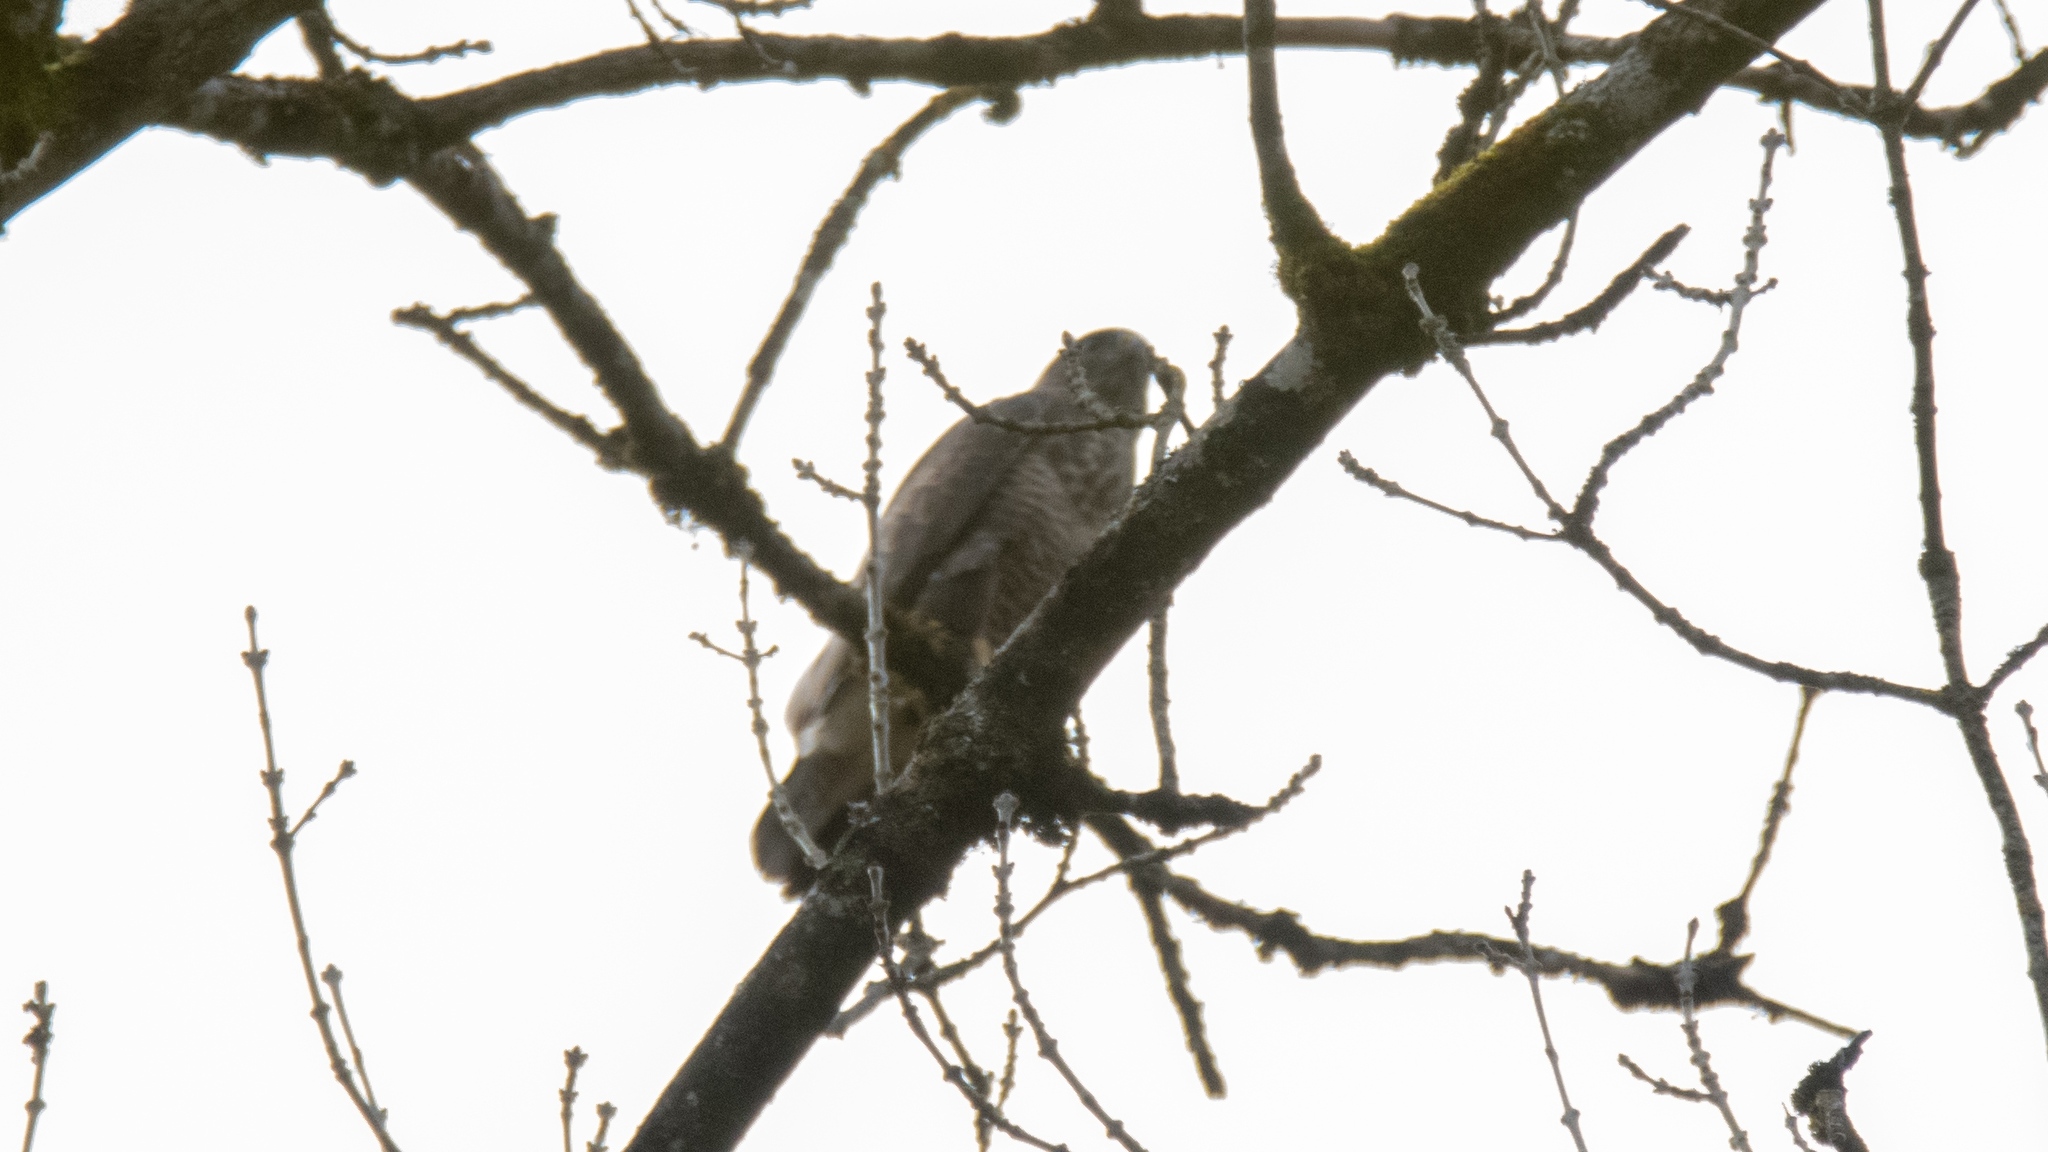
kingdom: Animalia
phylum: Chordata
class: Aves
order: Accipitriformes
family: Accipitridae
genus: Buteo
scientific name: Buteo buteo
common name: Common buzzard
